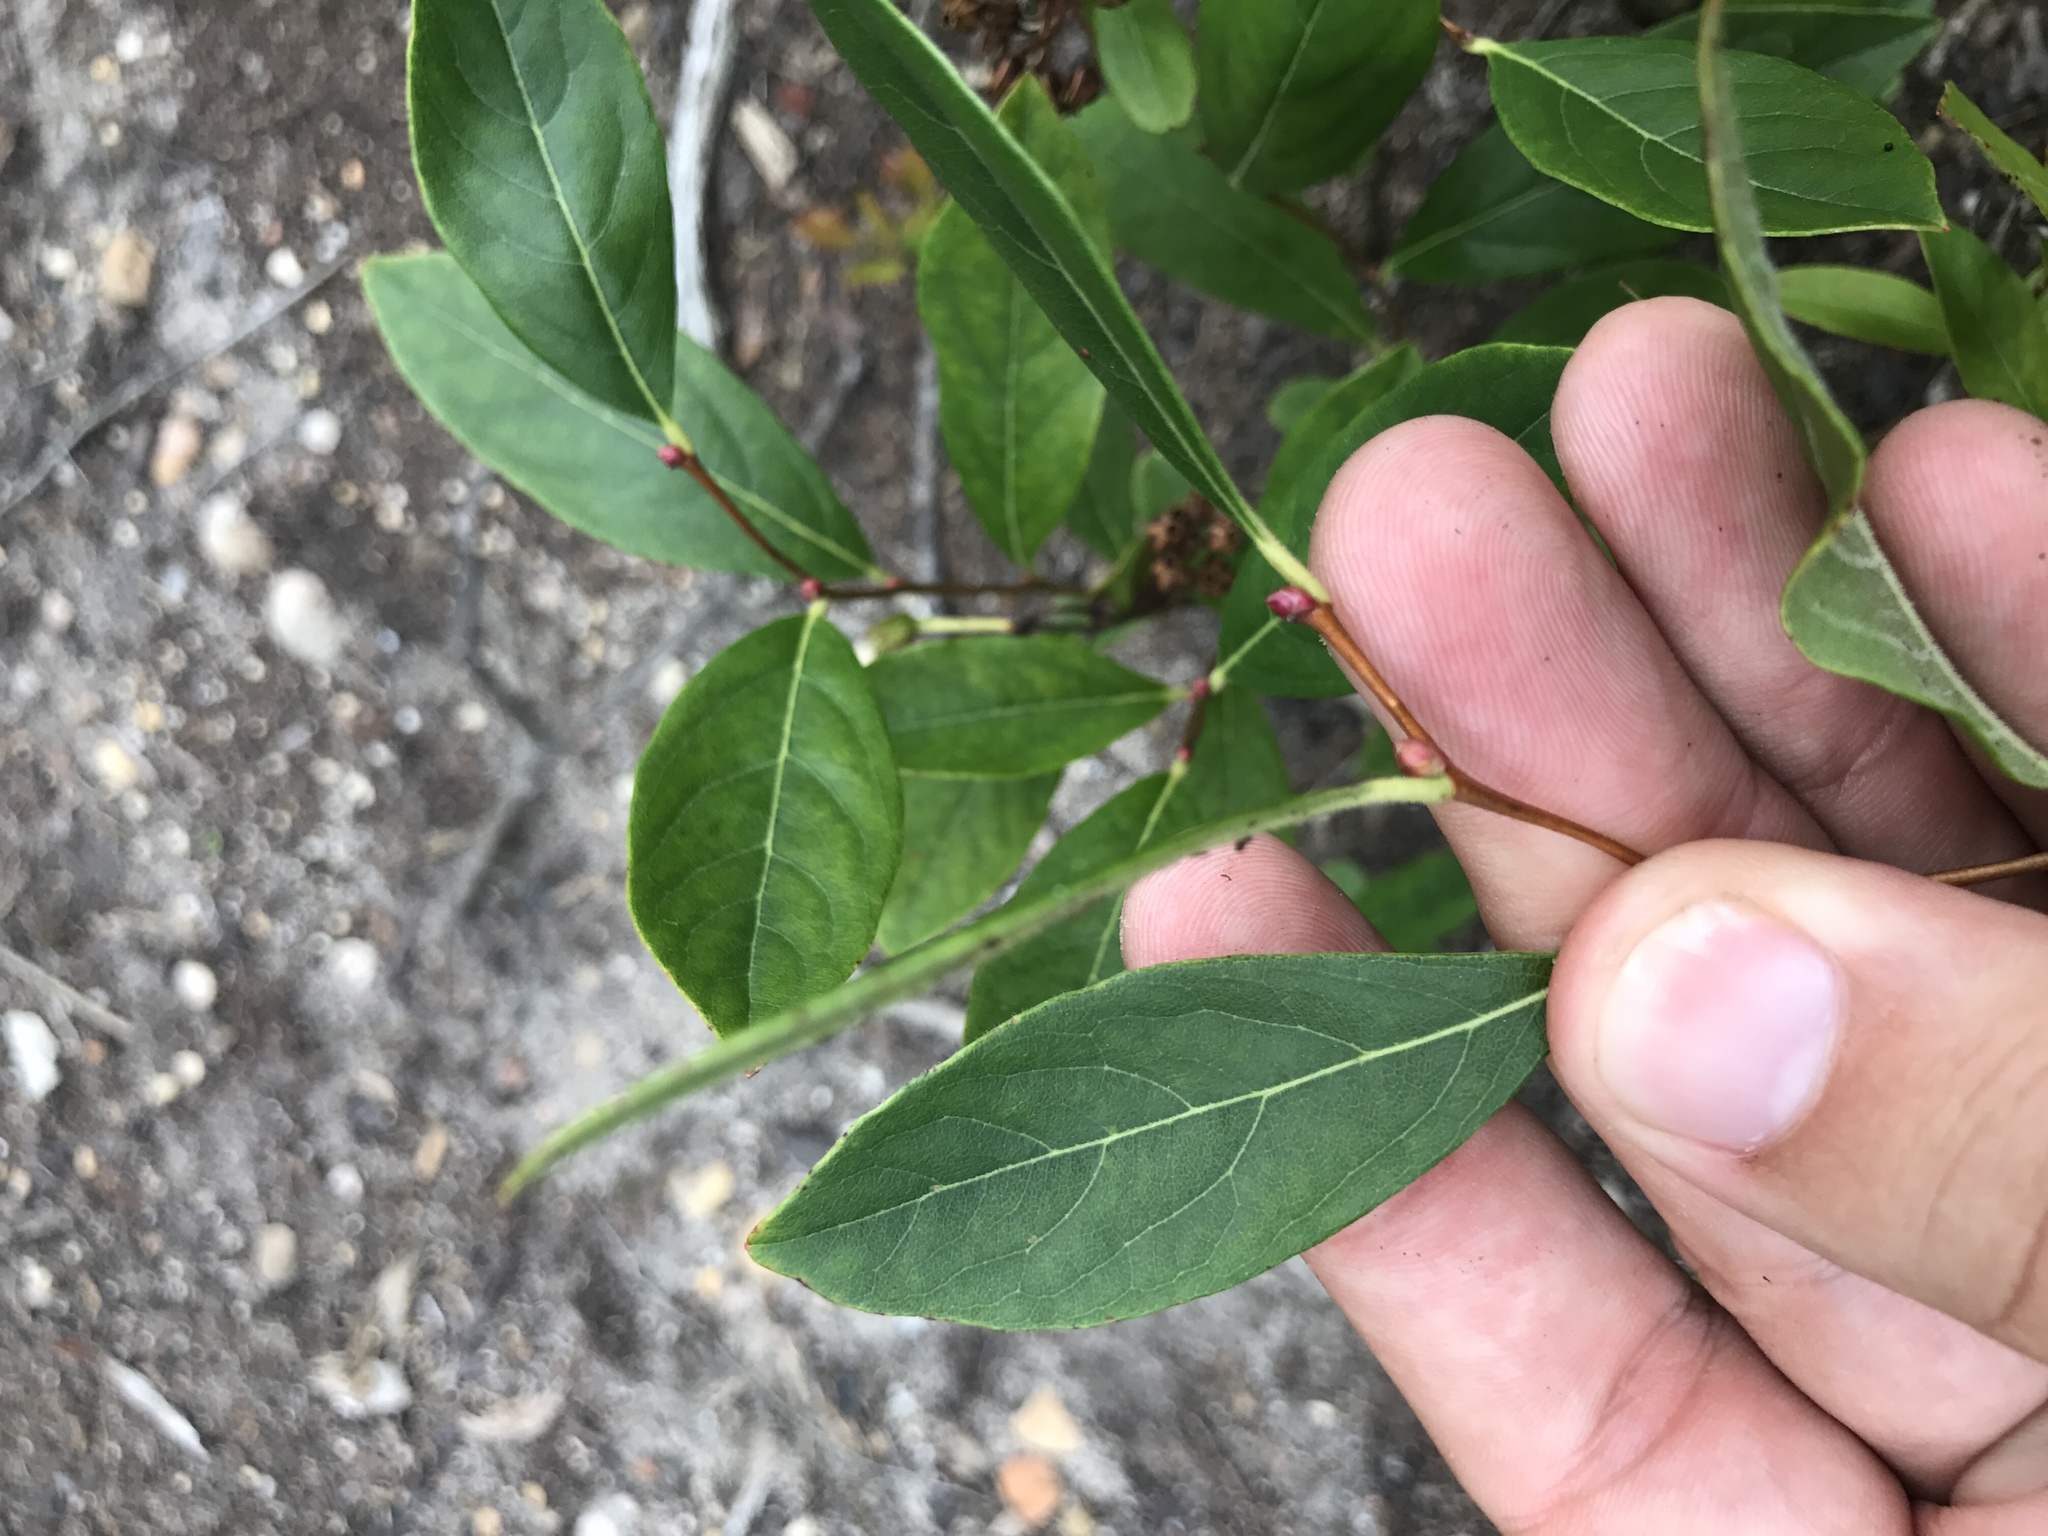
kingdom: Plantae
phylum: Tracheophyta
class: Magnoliopsida
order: Ericales
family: Ericaceae
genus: Lyonia
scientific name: Lyonia mariana
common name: Staggerbush
